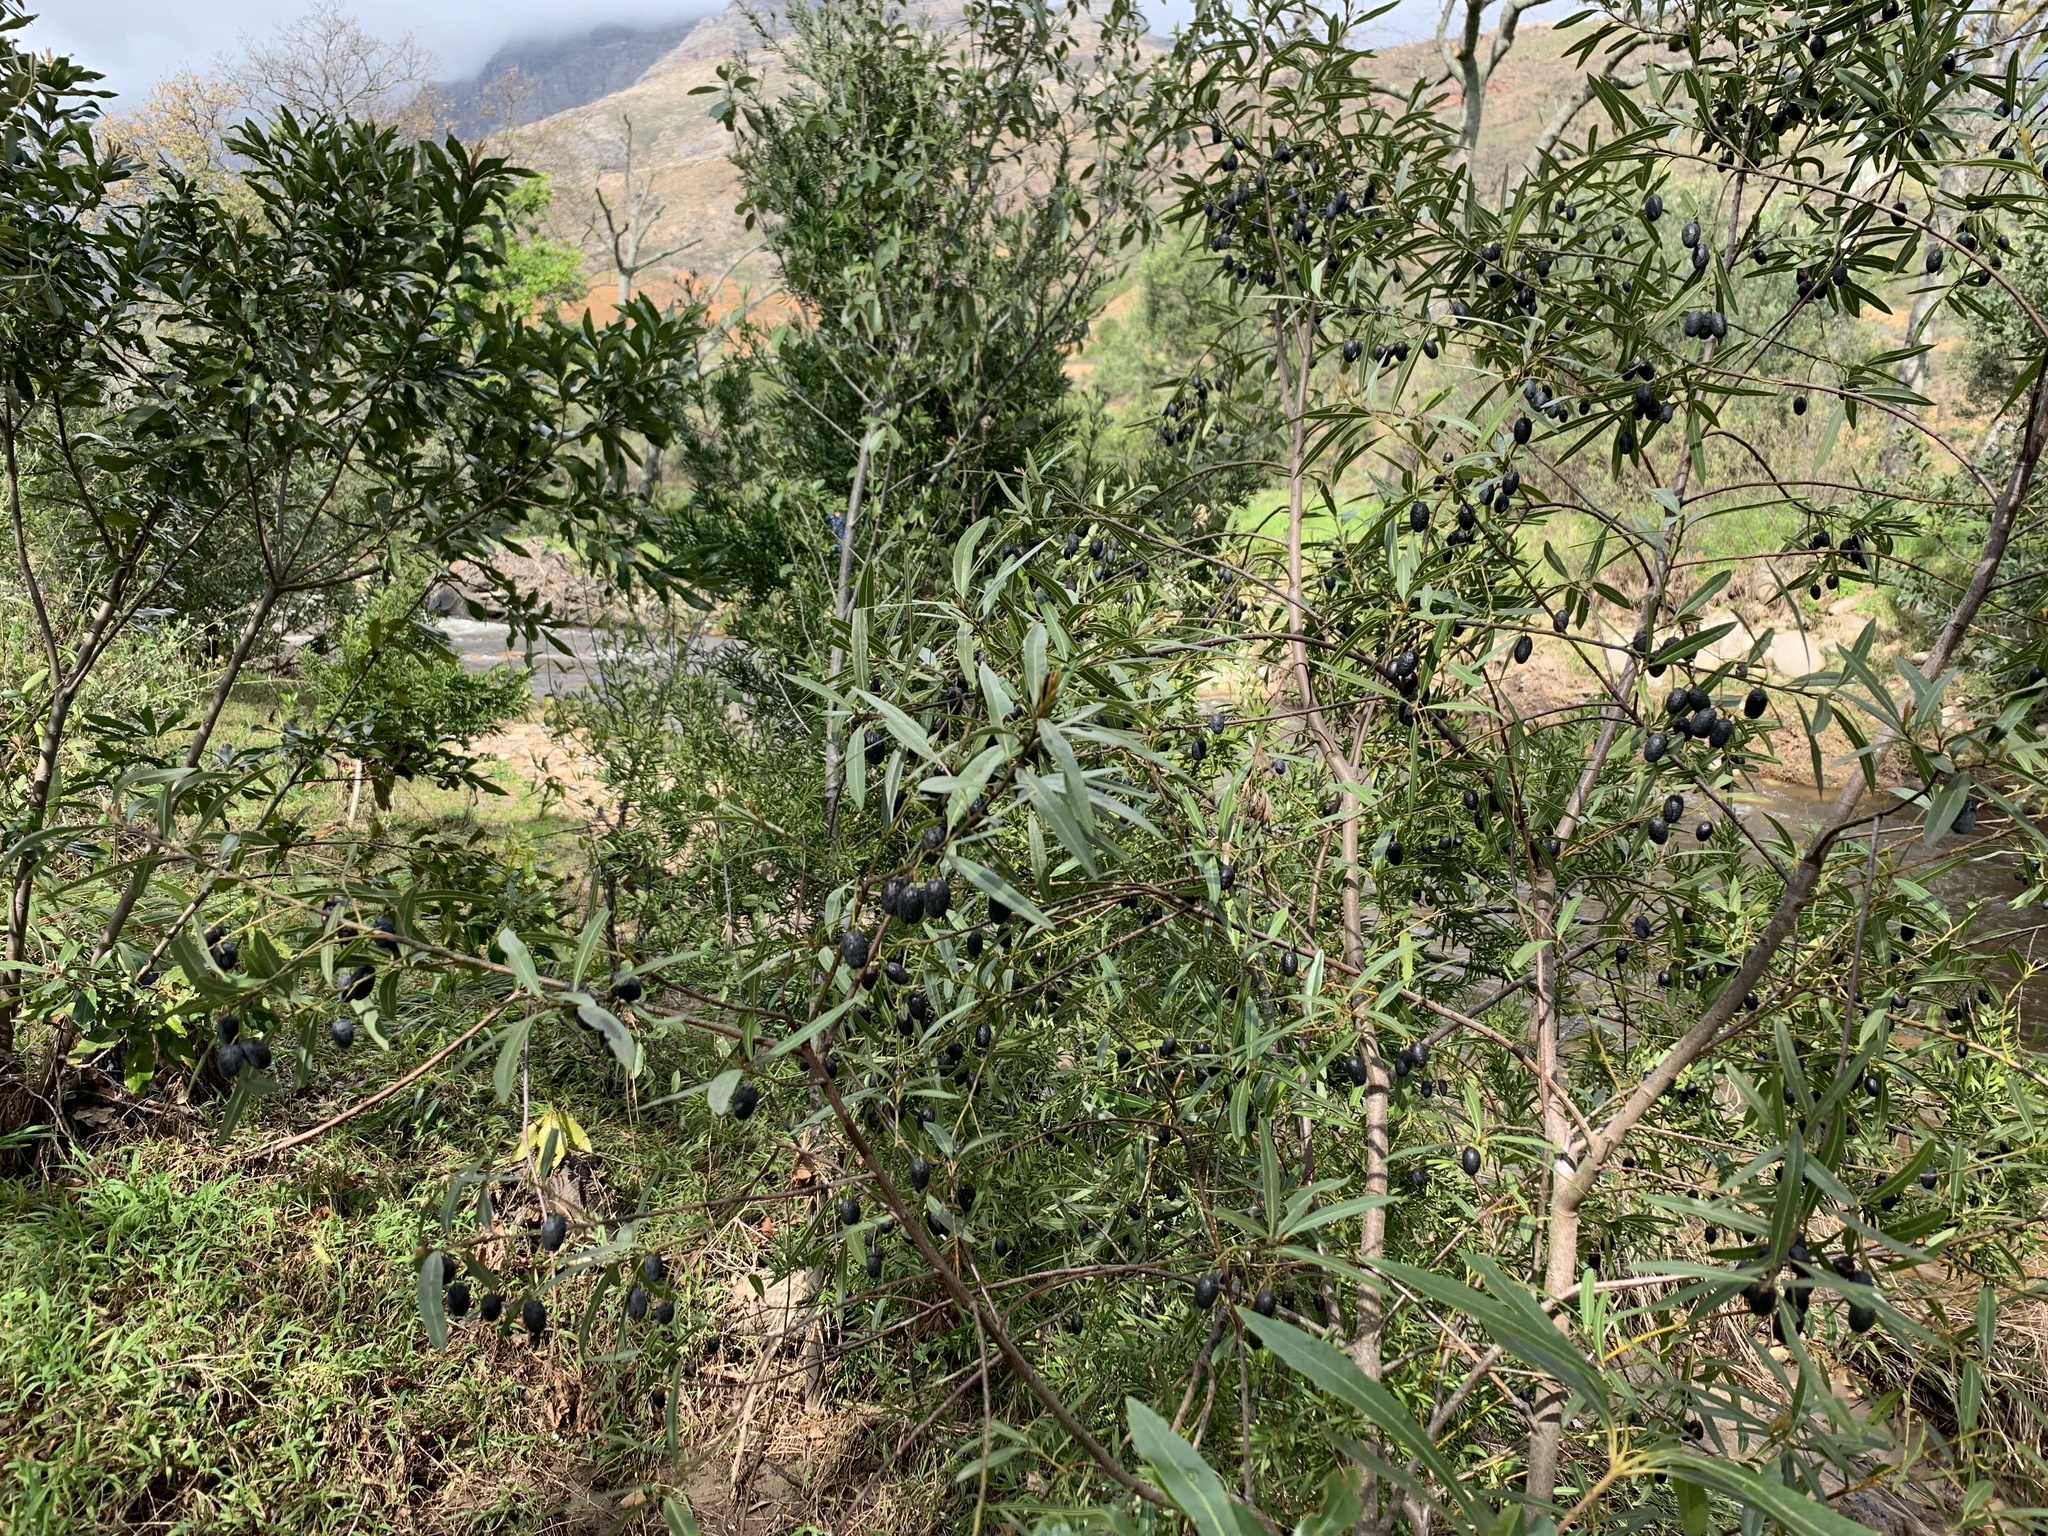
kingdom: Plantae
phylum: Tracheophyta
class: Magnoliopsida
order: Laurales
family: Lauraceae
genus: Cryptocarya
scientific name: Cryptocarya angustifolia
